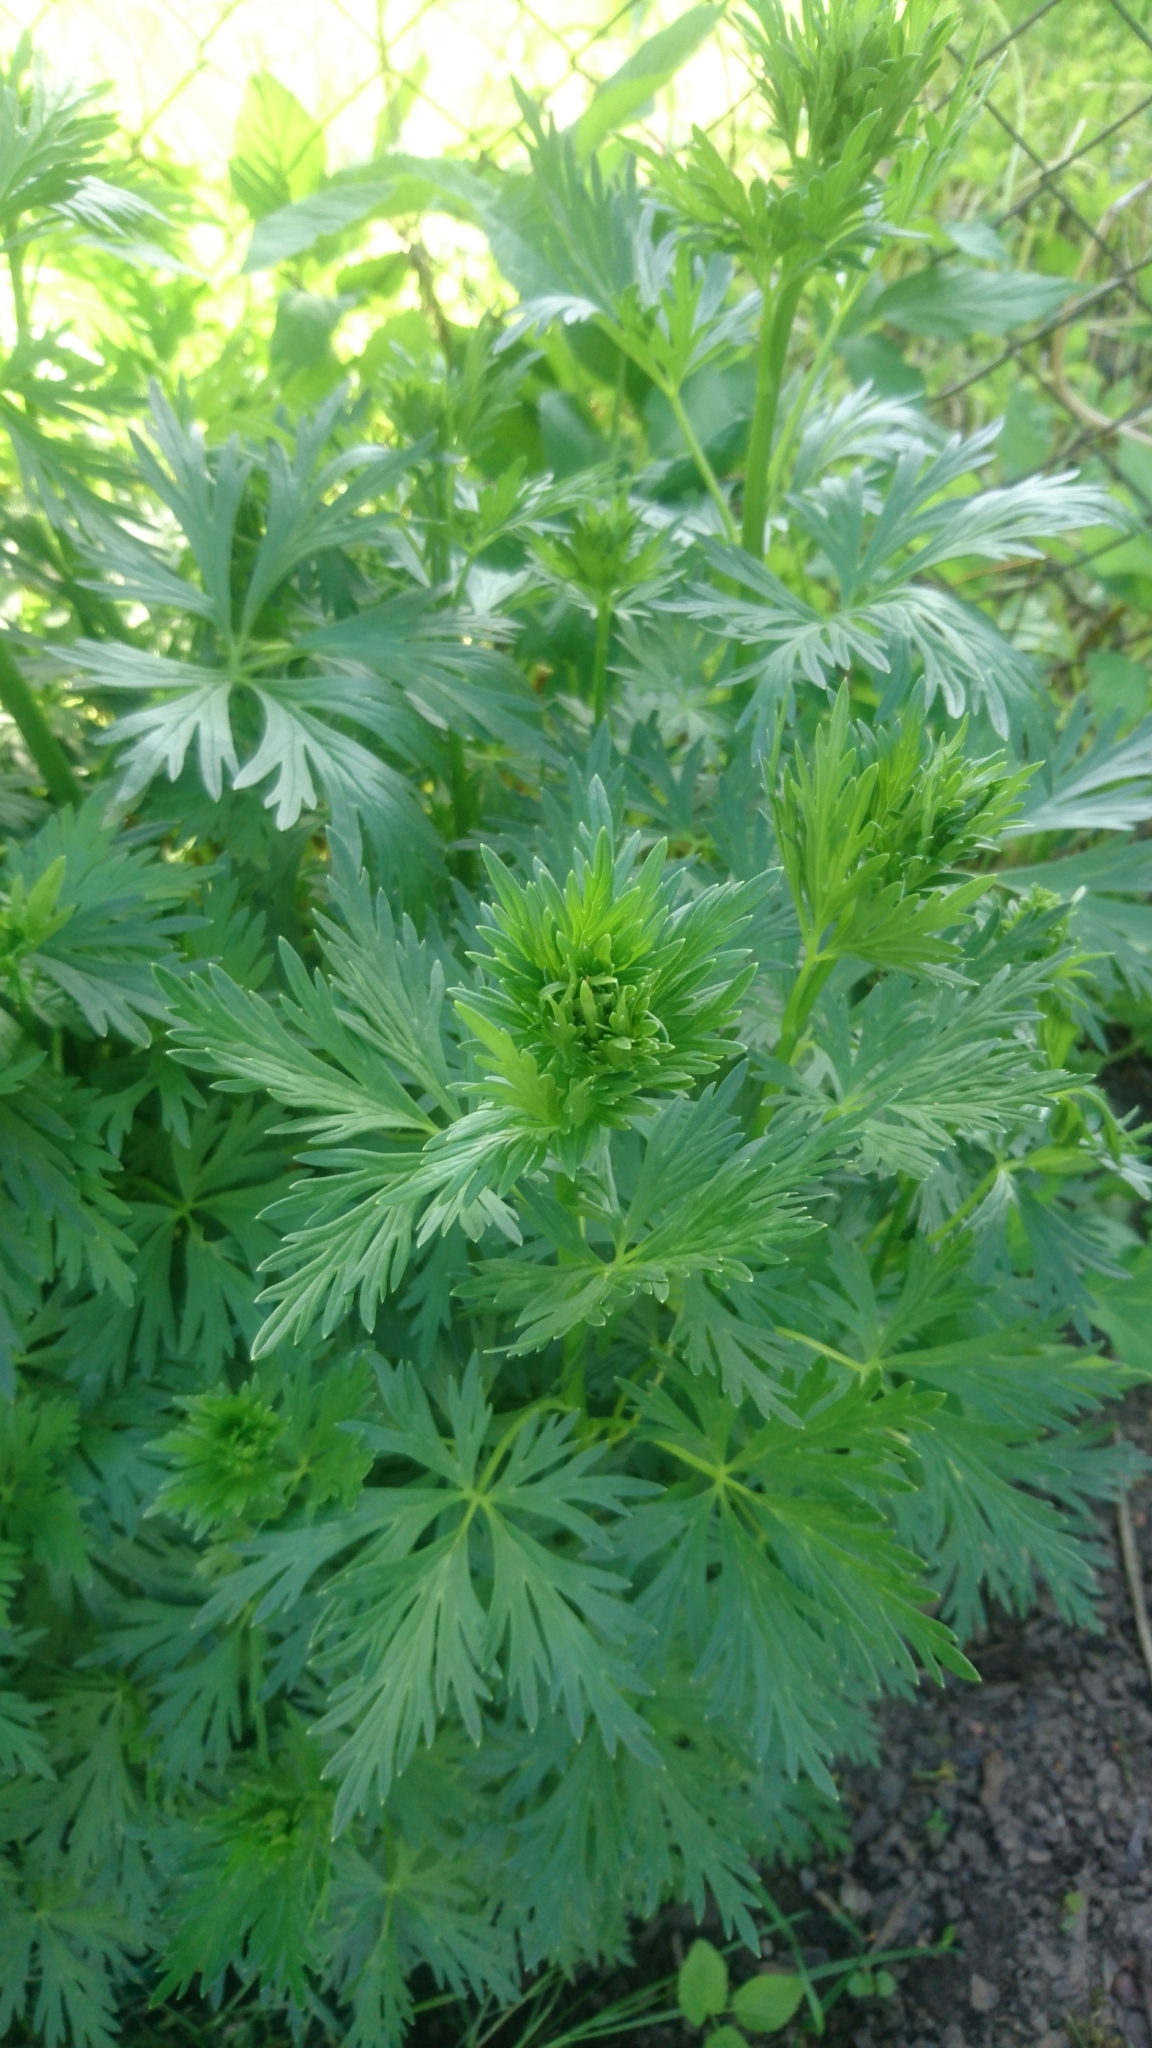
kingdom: Plantae
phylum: Tracheophyta
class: Magnoliopsida
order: Asterales
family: Asteraceae
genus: Artemisia
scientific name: Artemisia vulgaris
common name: Mugwort
